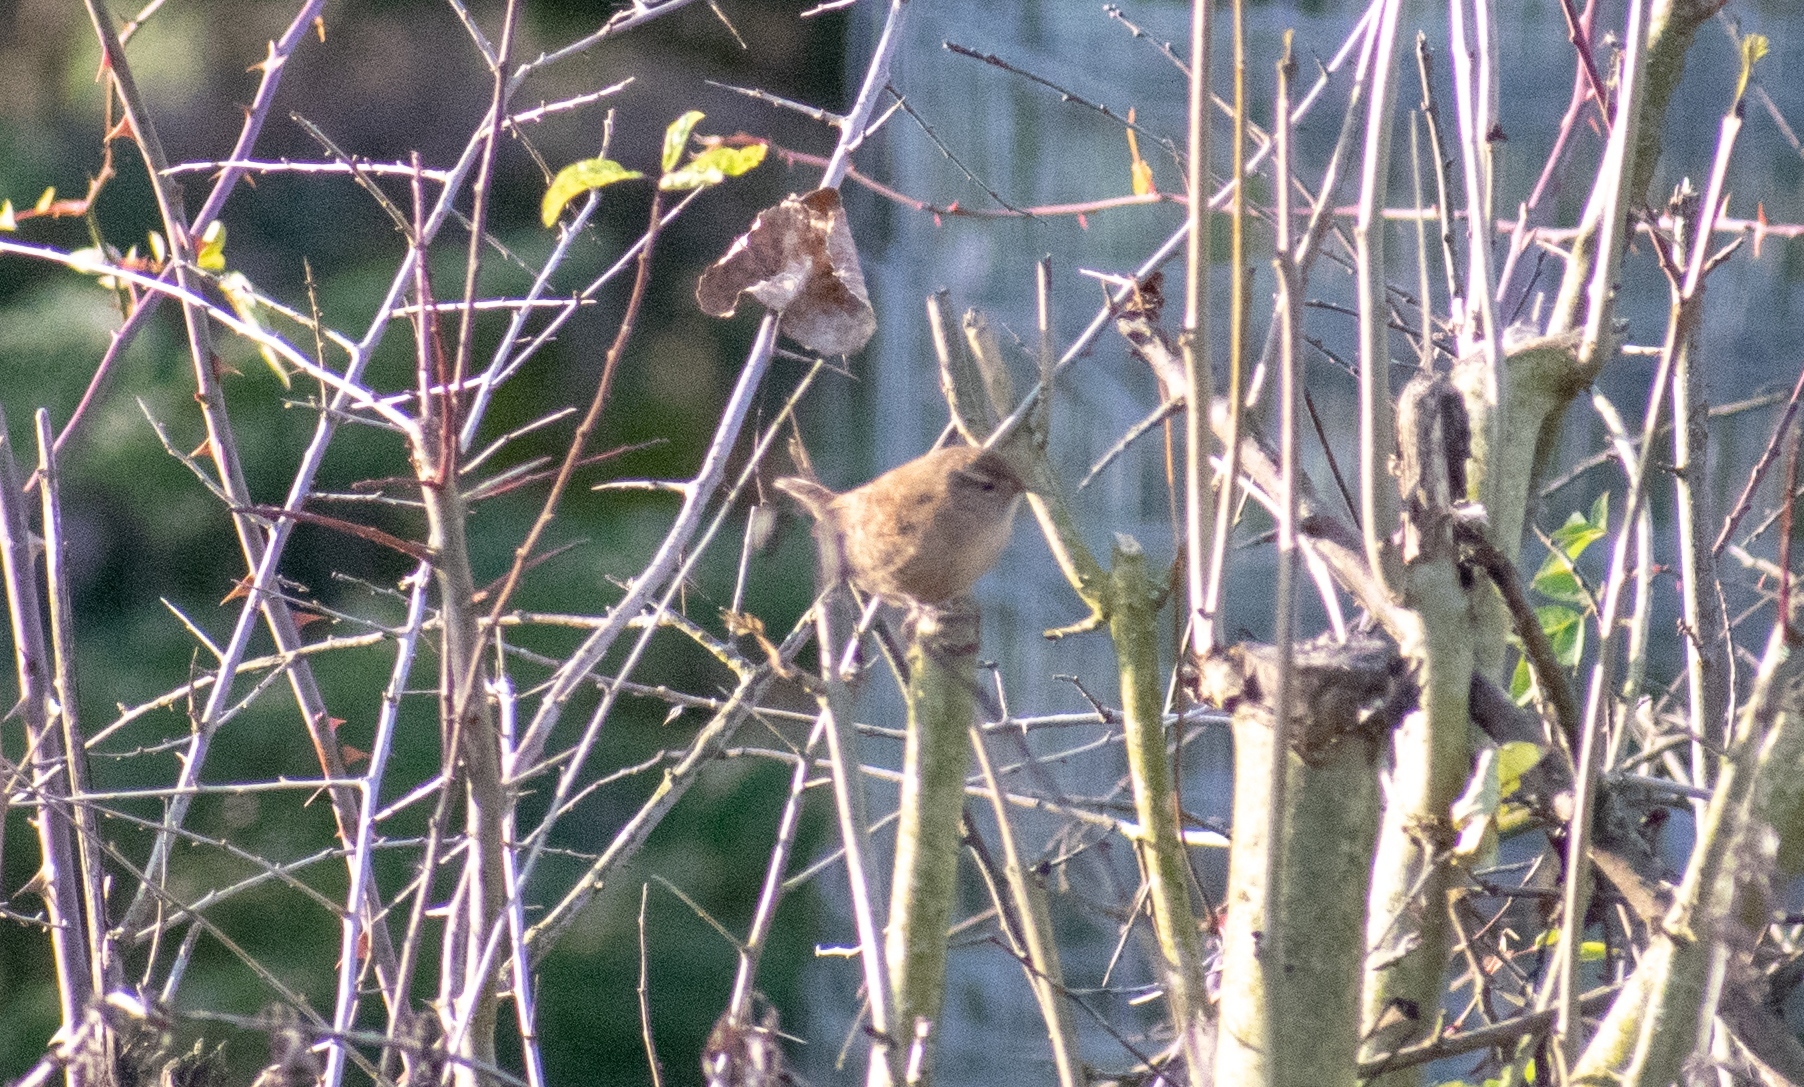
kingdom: Animalia
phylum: Chordata
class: Aves
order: Passeriformes
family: Troglodytidae
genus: Troglodytes
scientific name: Troglodytes troglodytes
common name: Eurasian wren
